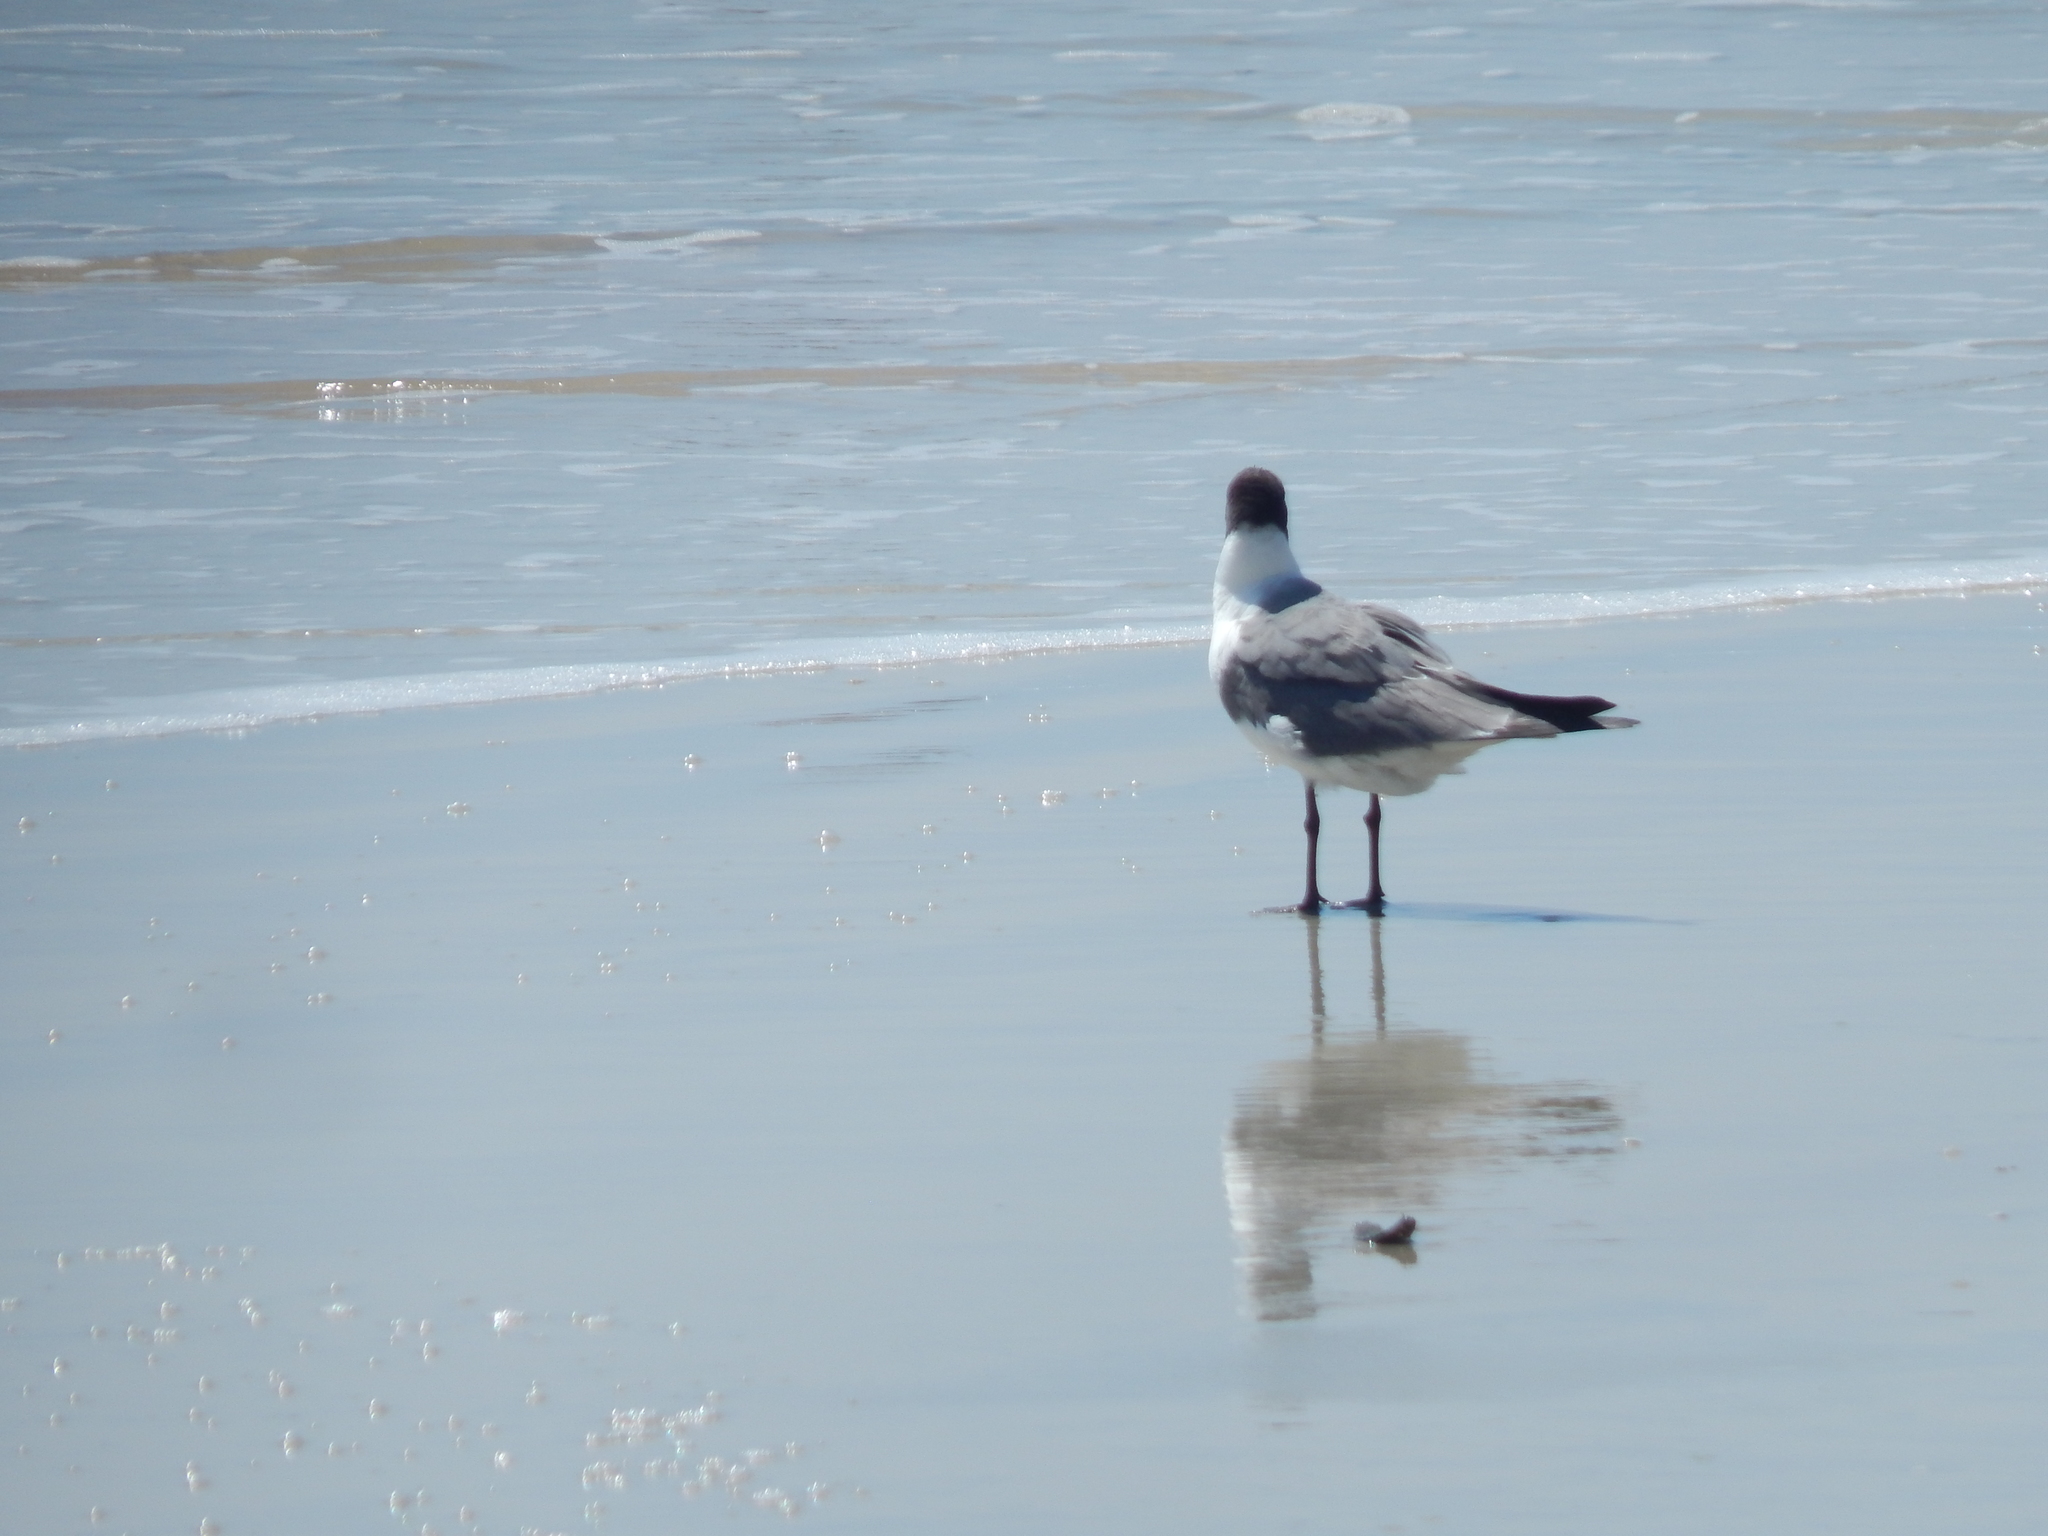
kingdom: Animalia
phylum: Chordata
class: Aves
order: Charadriiformes
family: Laridae
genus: Leucophaeus
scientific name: Leucophaeus atricilla
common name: Laughing gull
